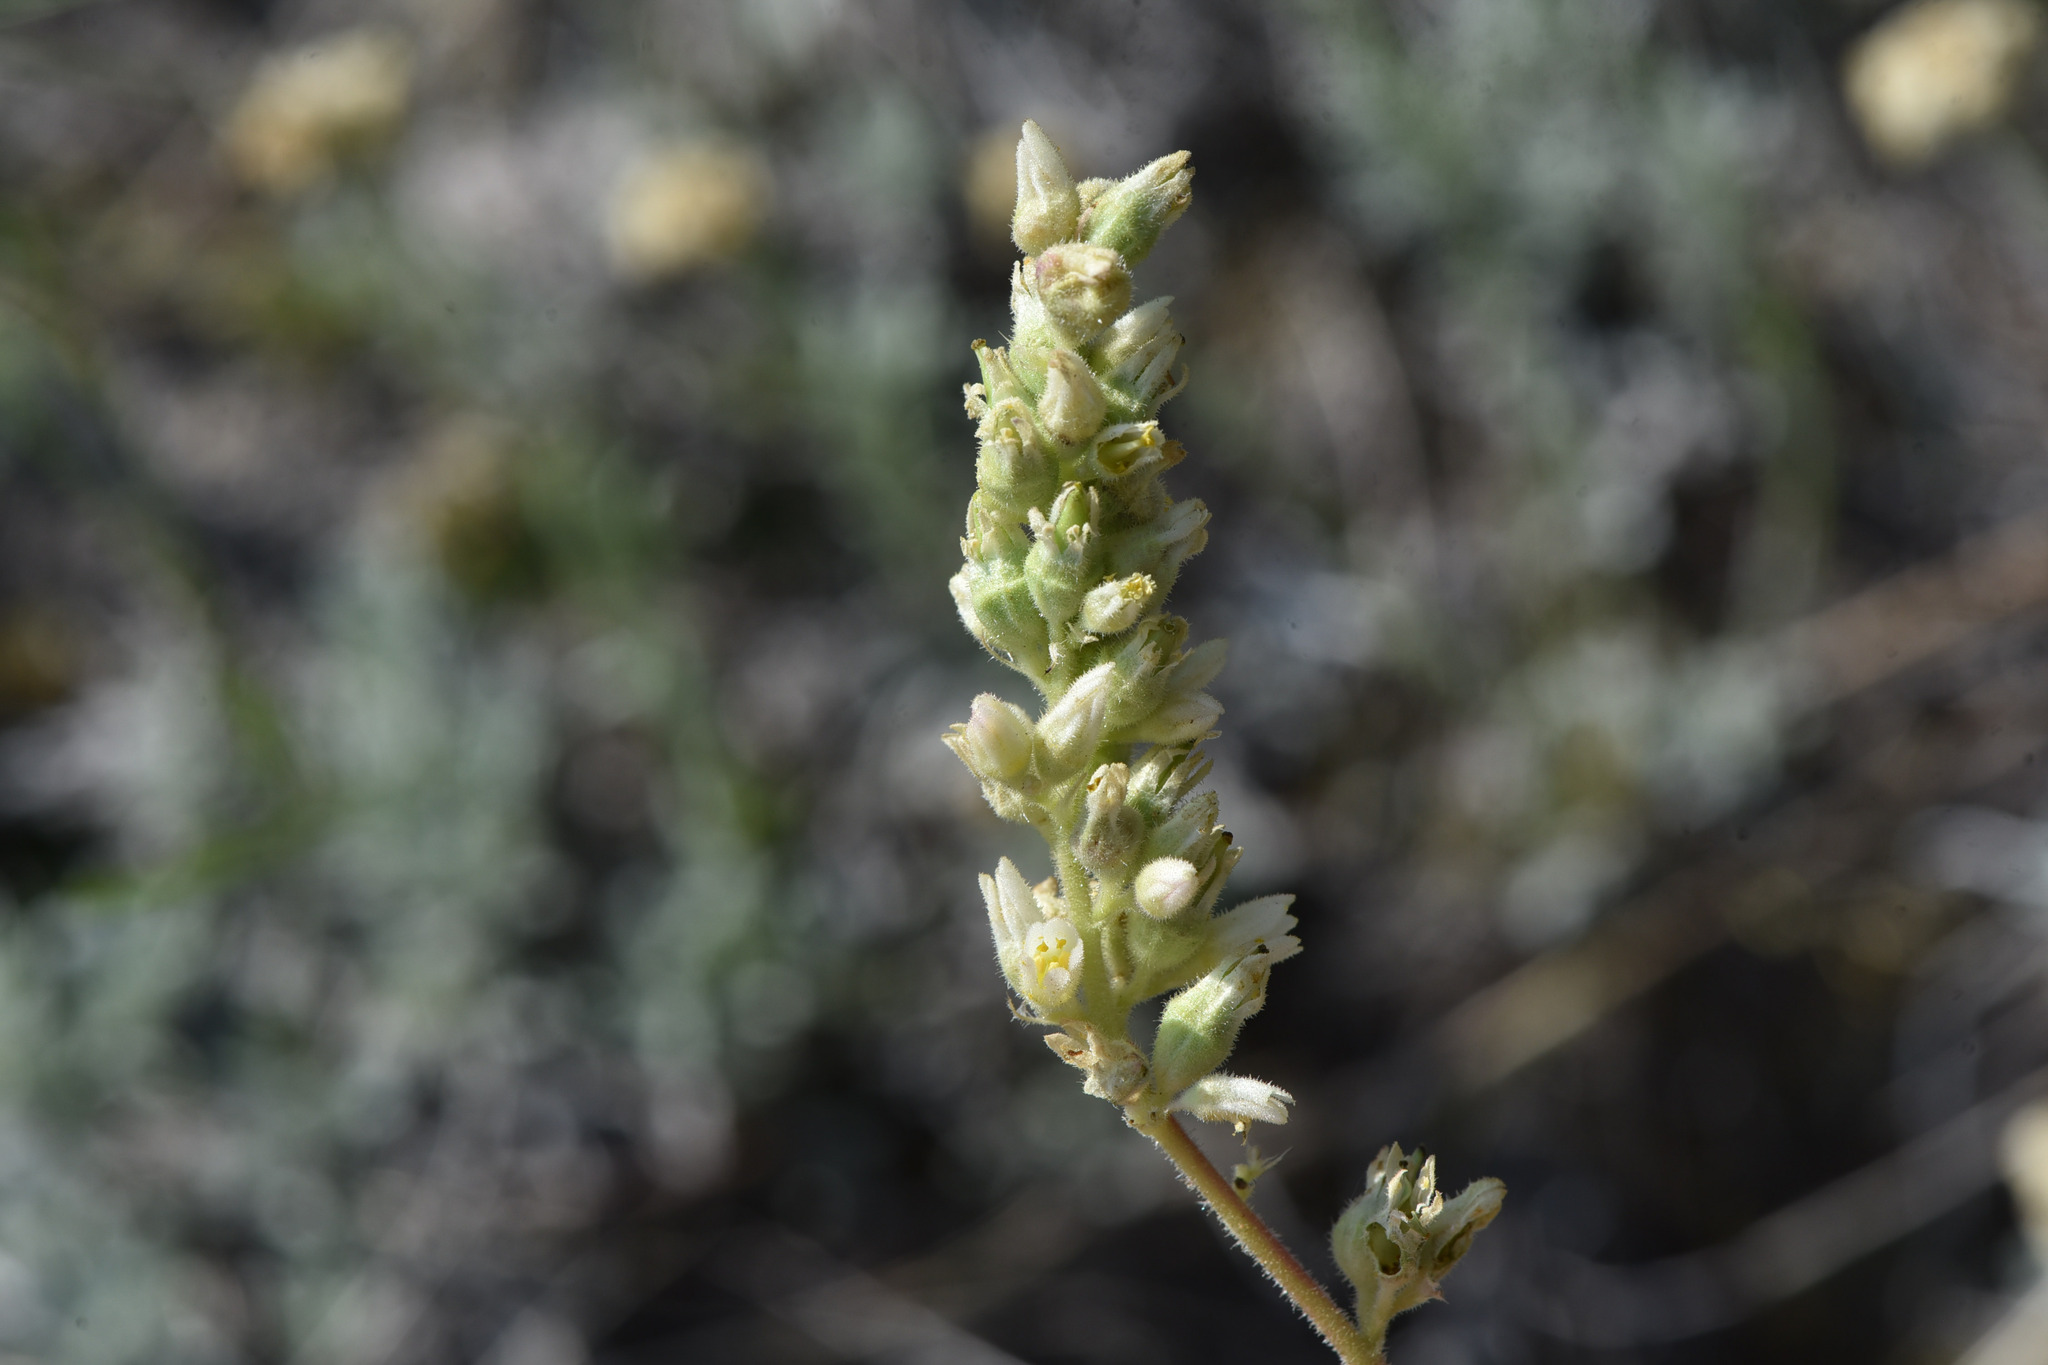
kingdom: Plantae
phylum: Tracheophyta
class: Magnoliopsida
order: Saxifragales
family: Saxifragaceae
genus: Heuchera
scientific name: Heuchera cylindrica
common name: Mat alumroot
